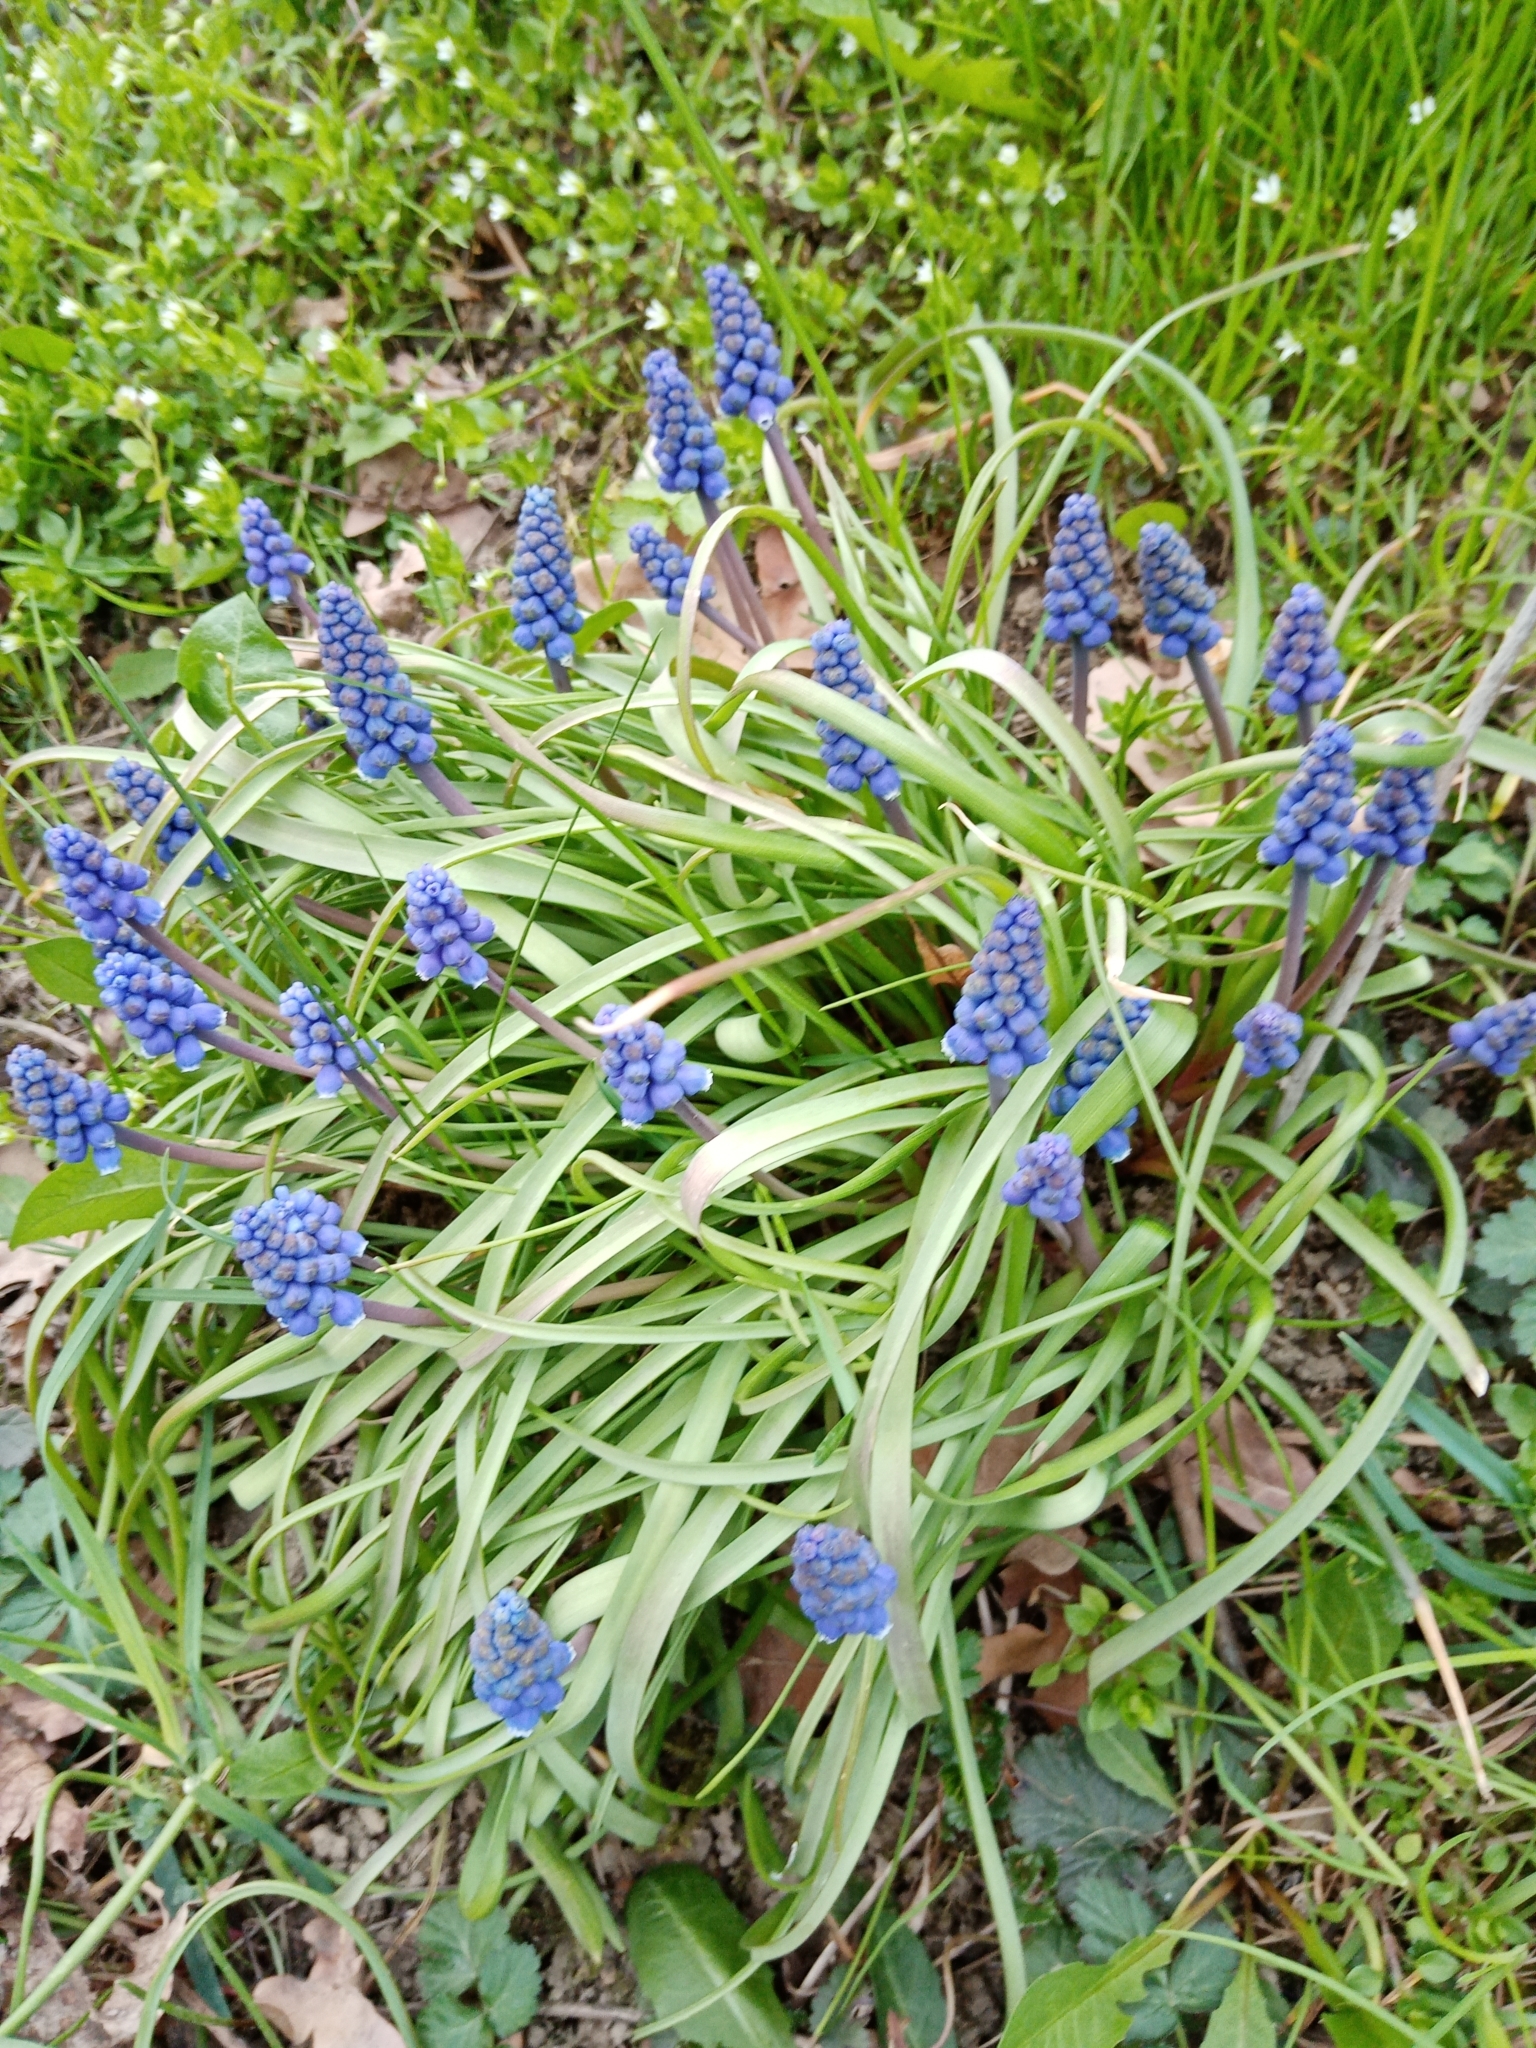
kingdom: Plantae
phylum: Tracheophyta
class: Liliopsida
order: Asparagales
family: Asparagaceae
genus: Muscari
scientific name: Muscari armeniacum
